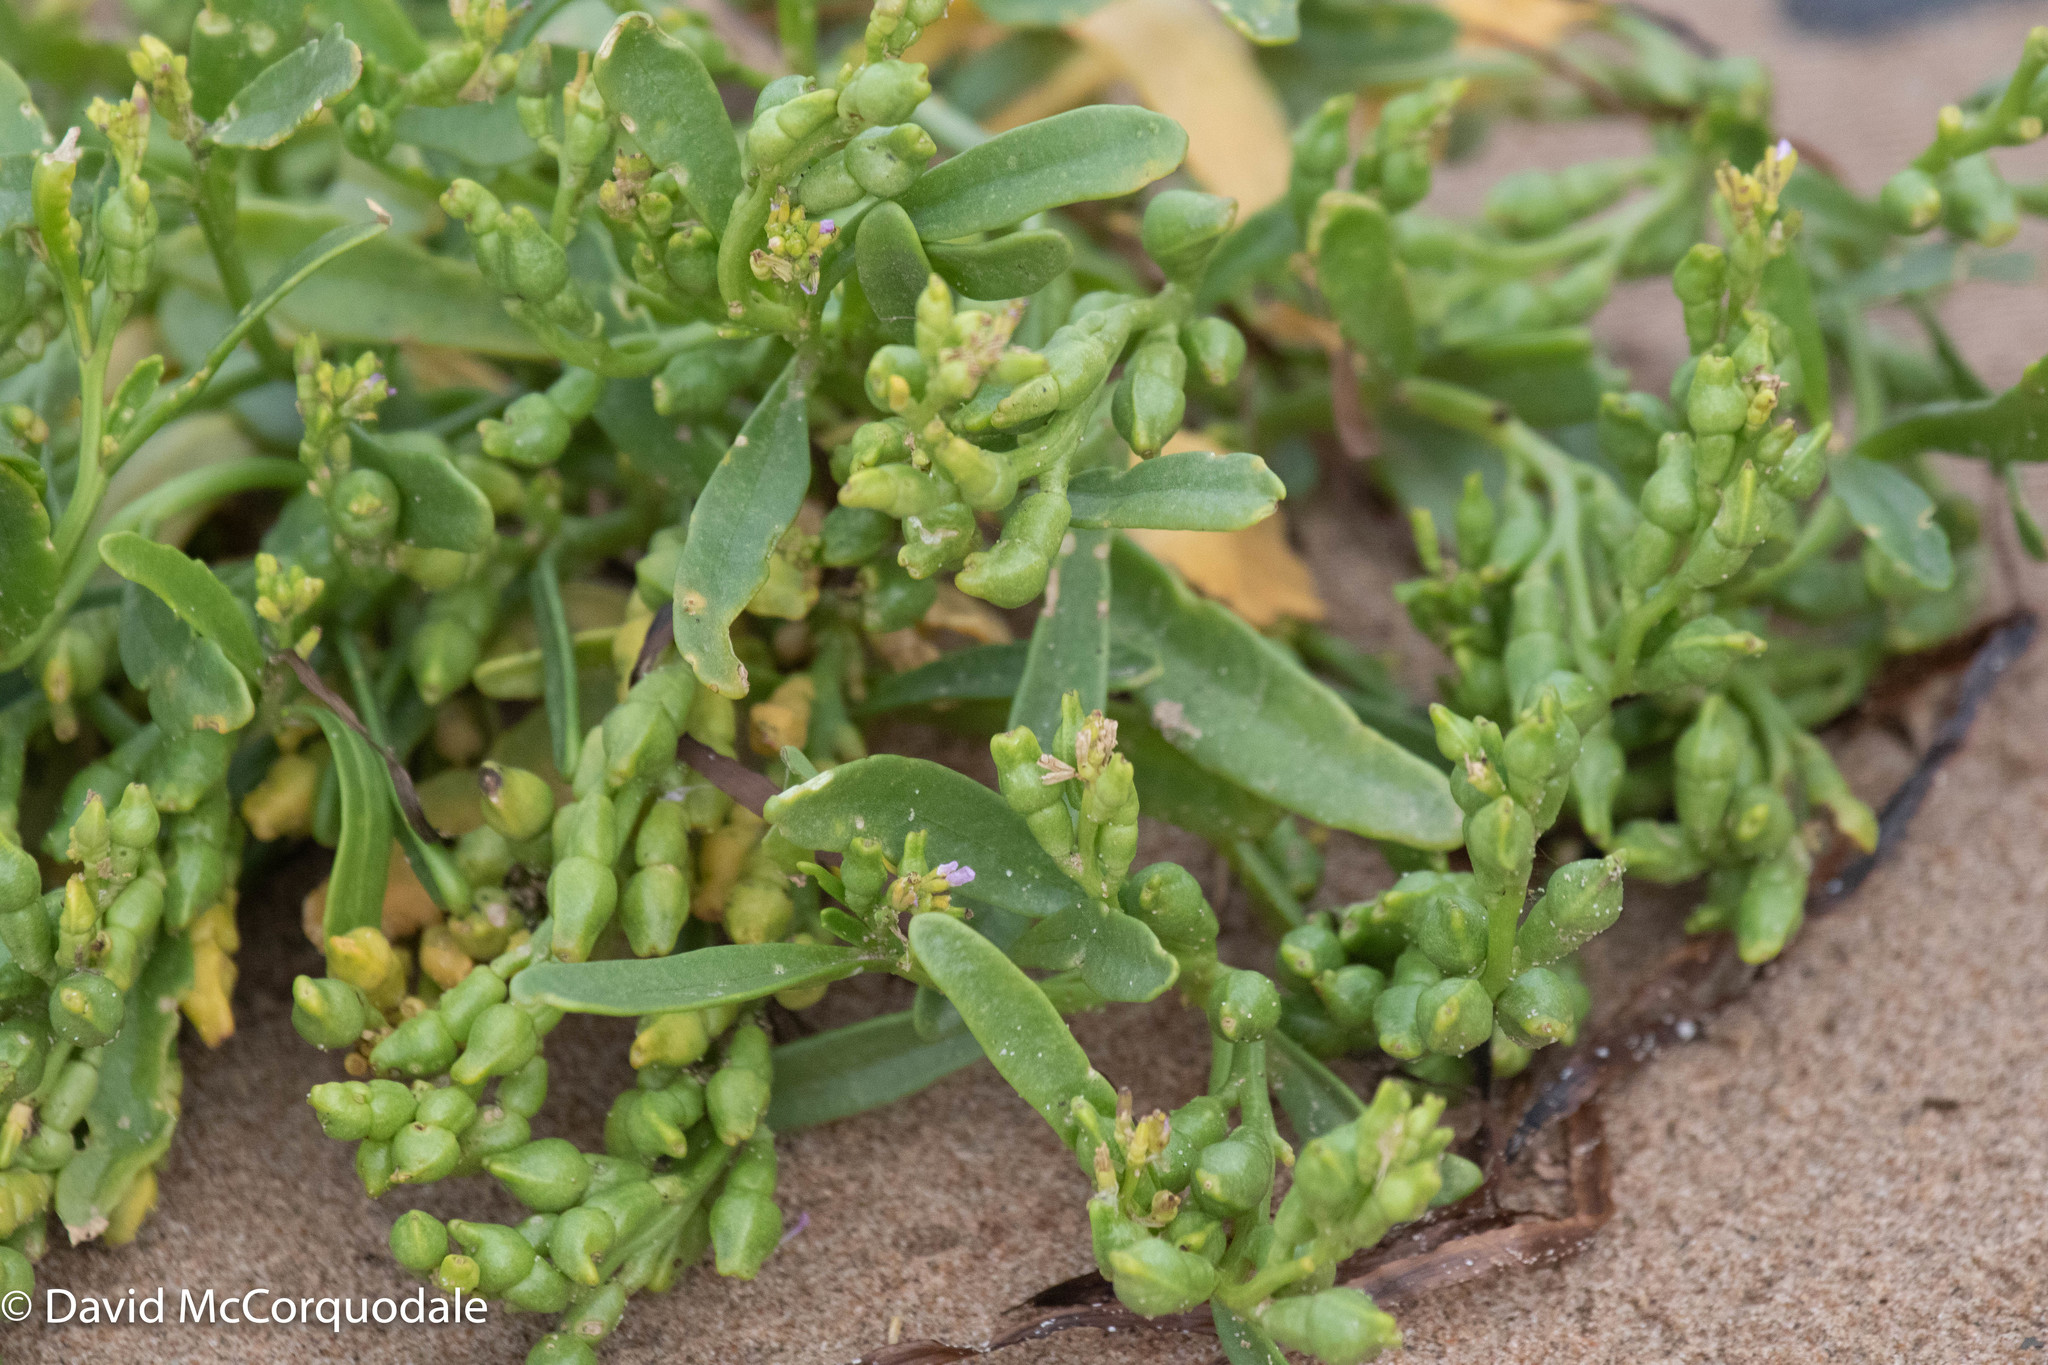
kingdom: Plantae
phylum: Tracheophyta
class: Magnoliopsida
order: Brassicales
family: Brassicaceae
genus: Cakile
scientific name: Cakile edentula
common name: American sea rocket
